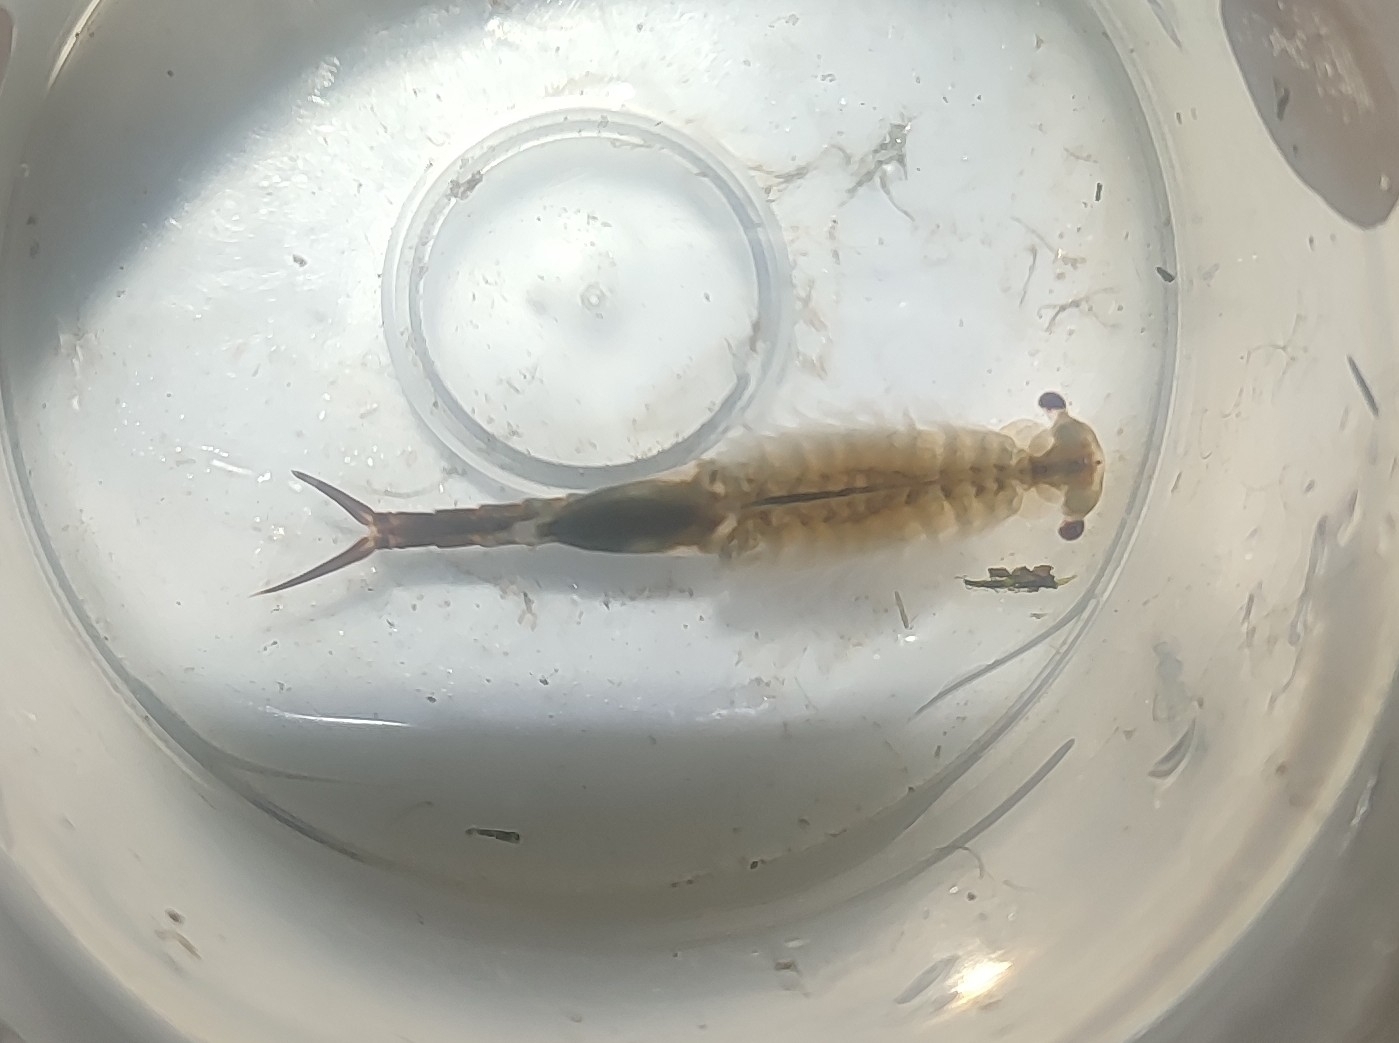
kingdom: Animalia
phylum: Arthropoda
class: Branchiopoda
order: Anostraca
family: Chirocephalidae
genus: Chirocephalus
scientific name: Chirocephalus diaphanus
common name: Fairy shrimp
